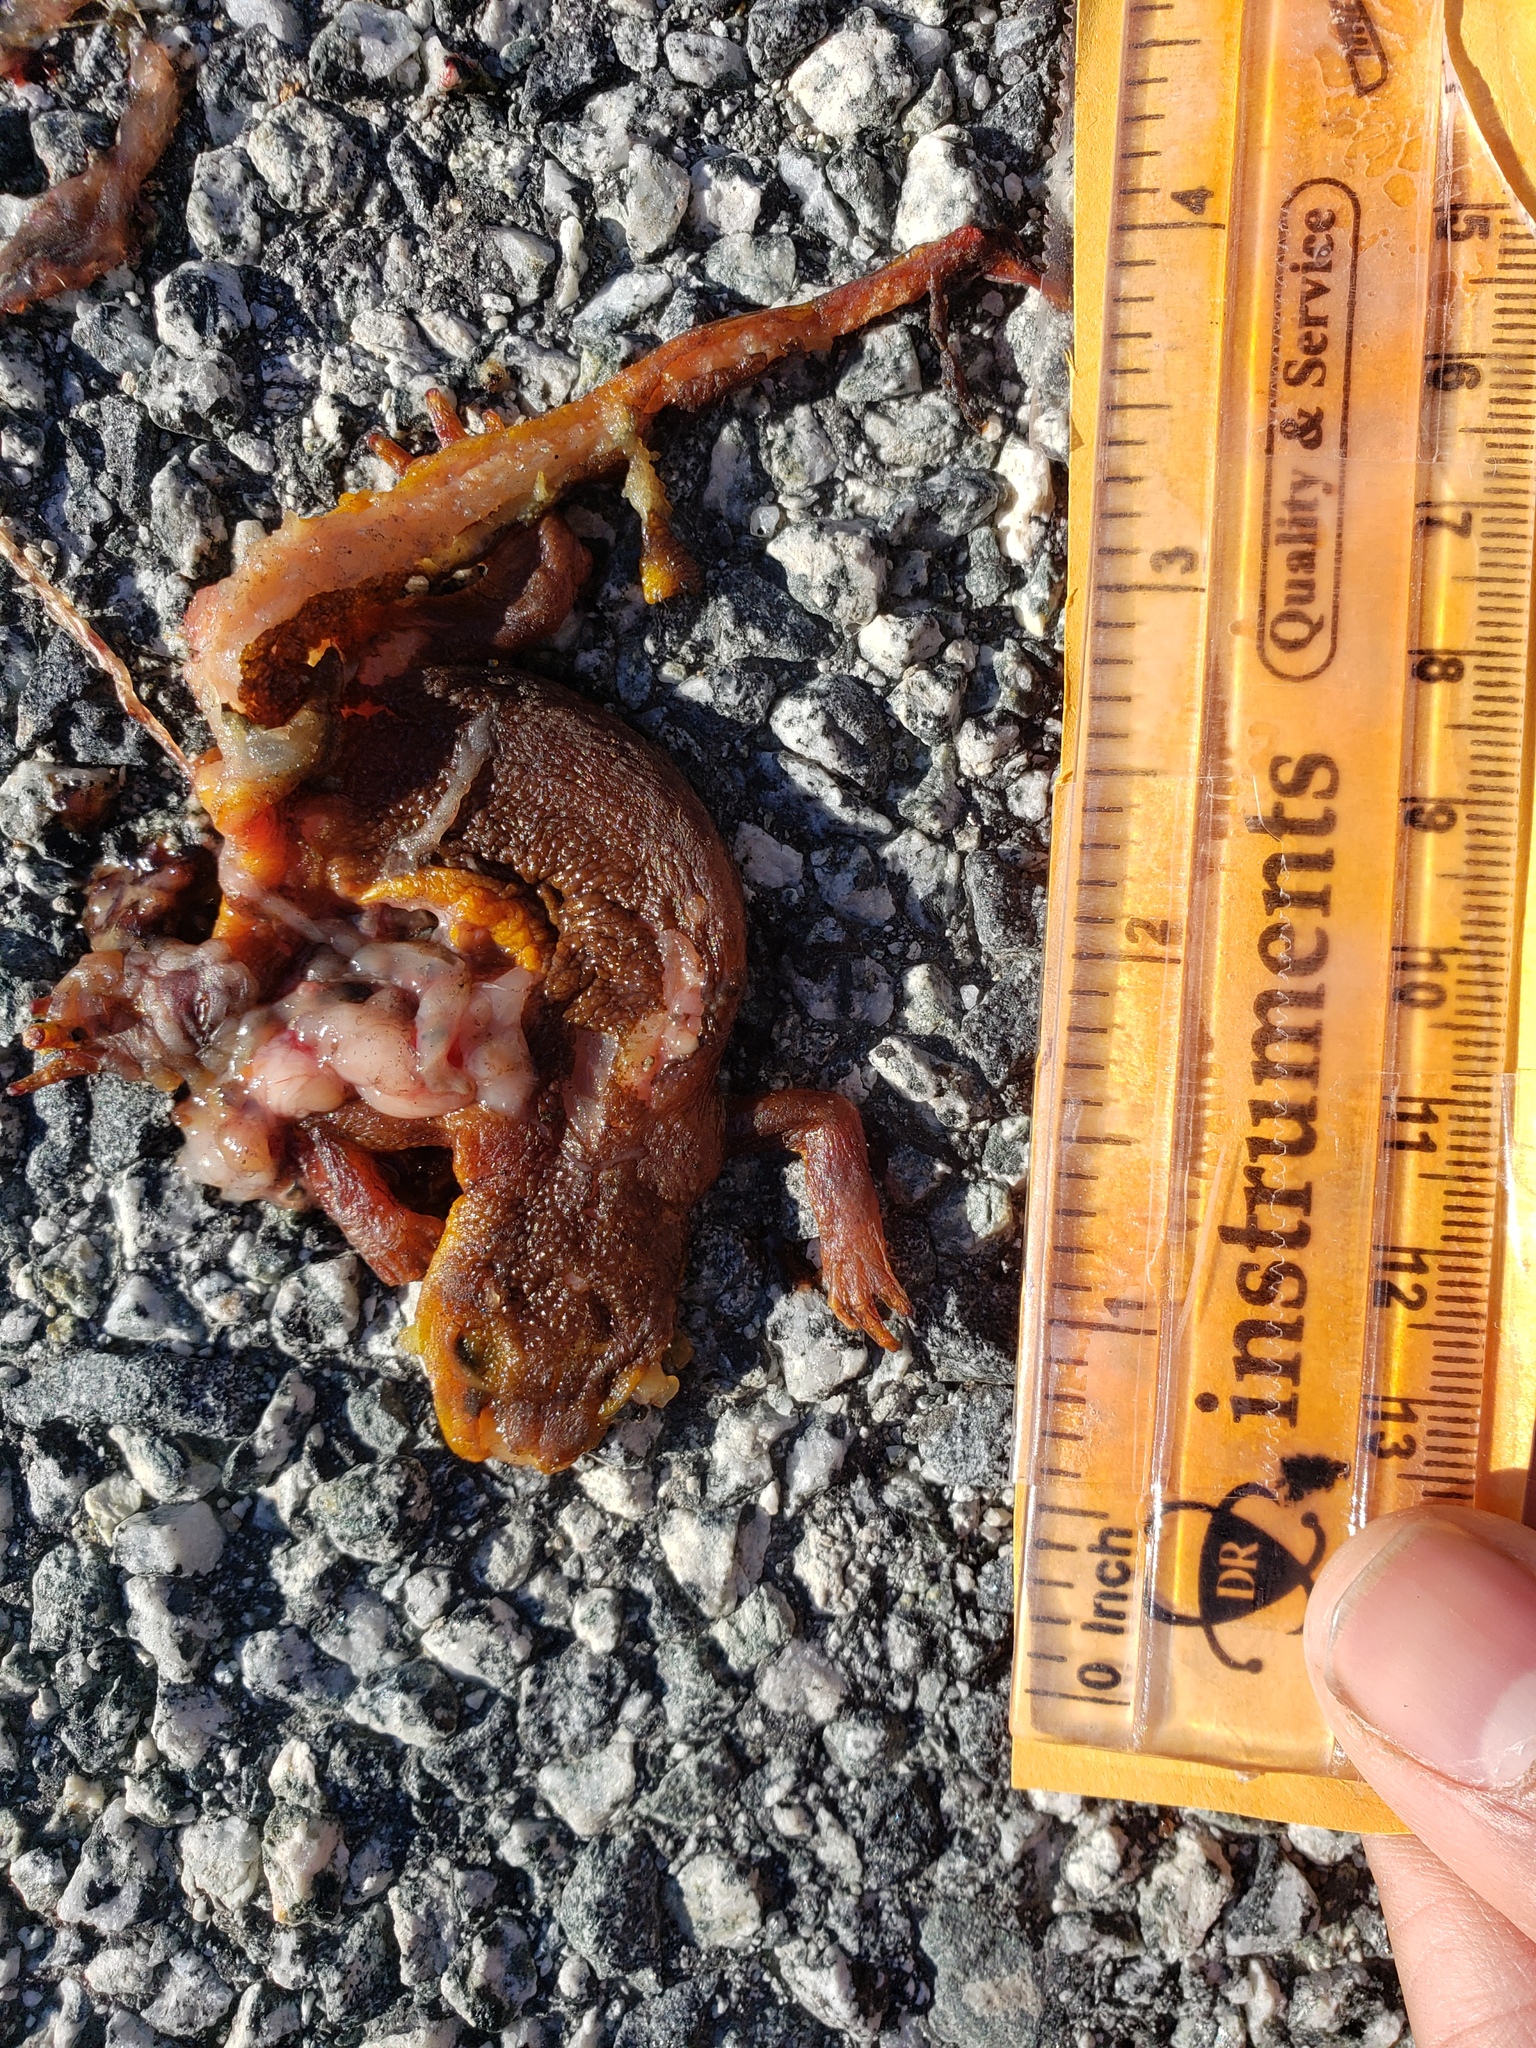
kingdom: Animalia
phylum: Chordata
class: Amphibia
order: Caudata
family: Salamandridae
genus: Taricha
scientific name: Taricha
